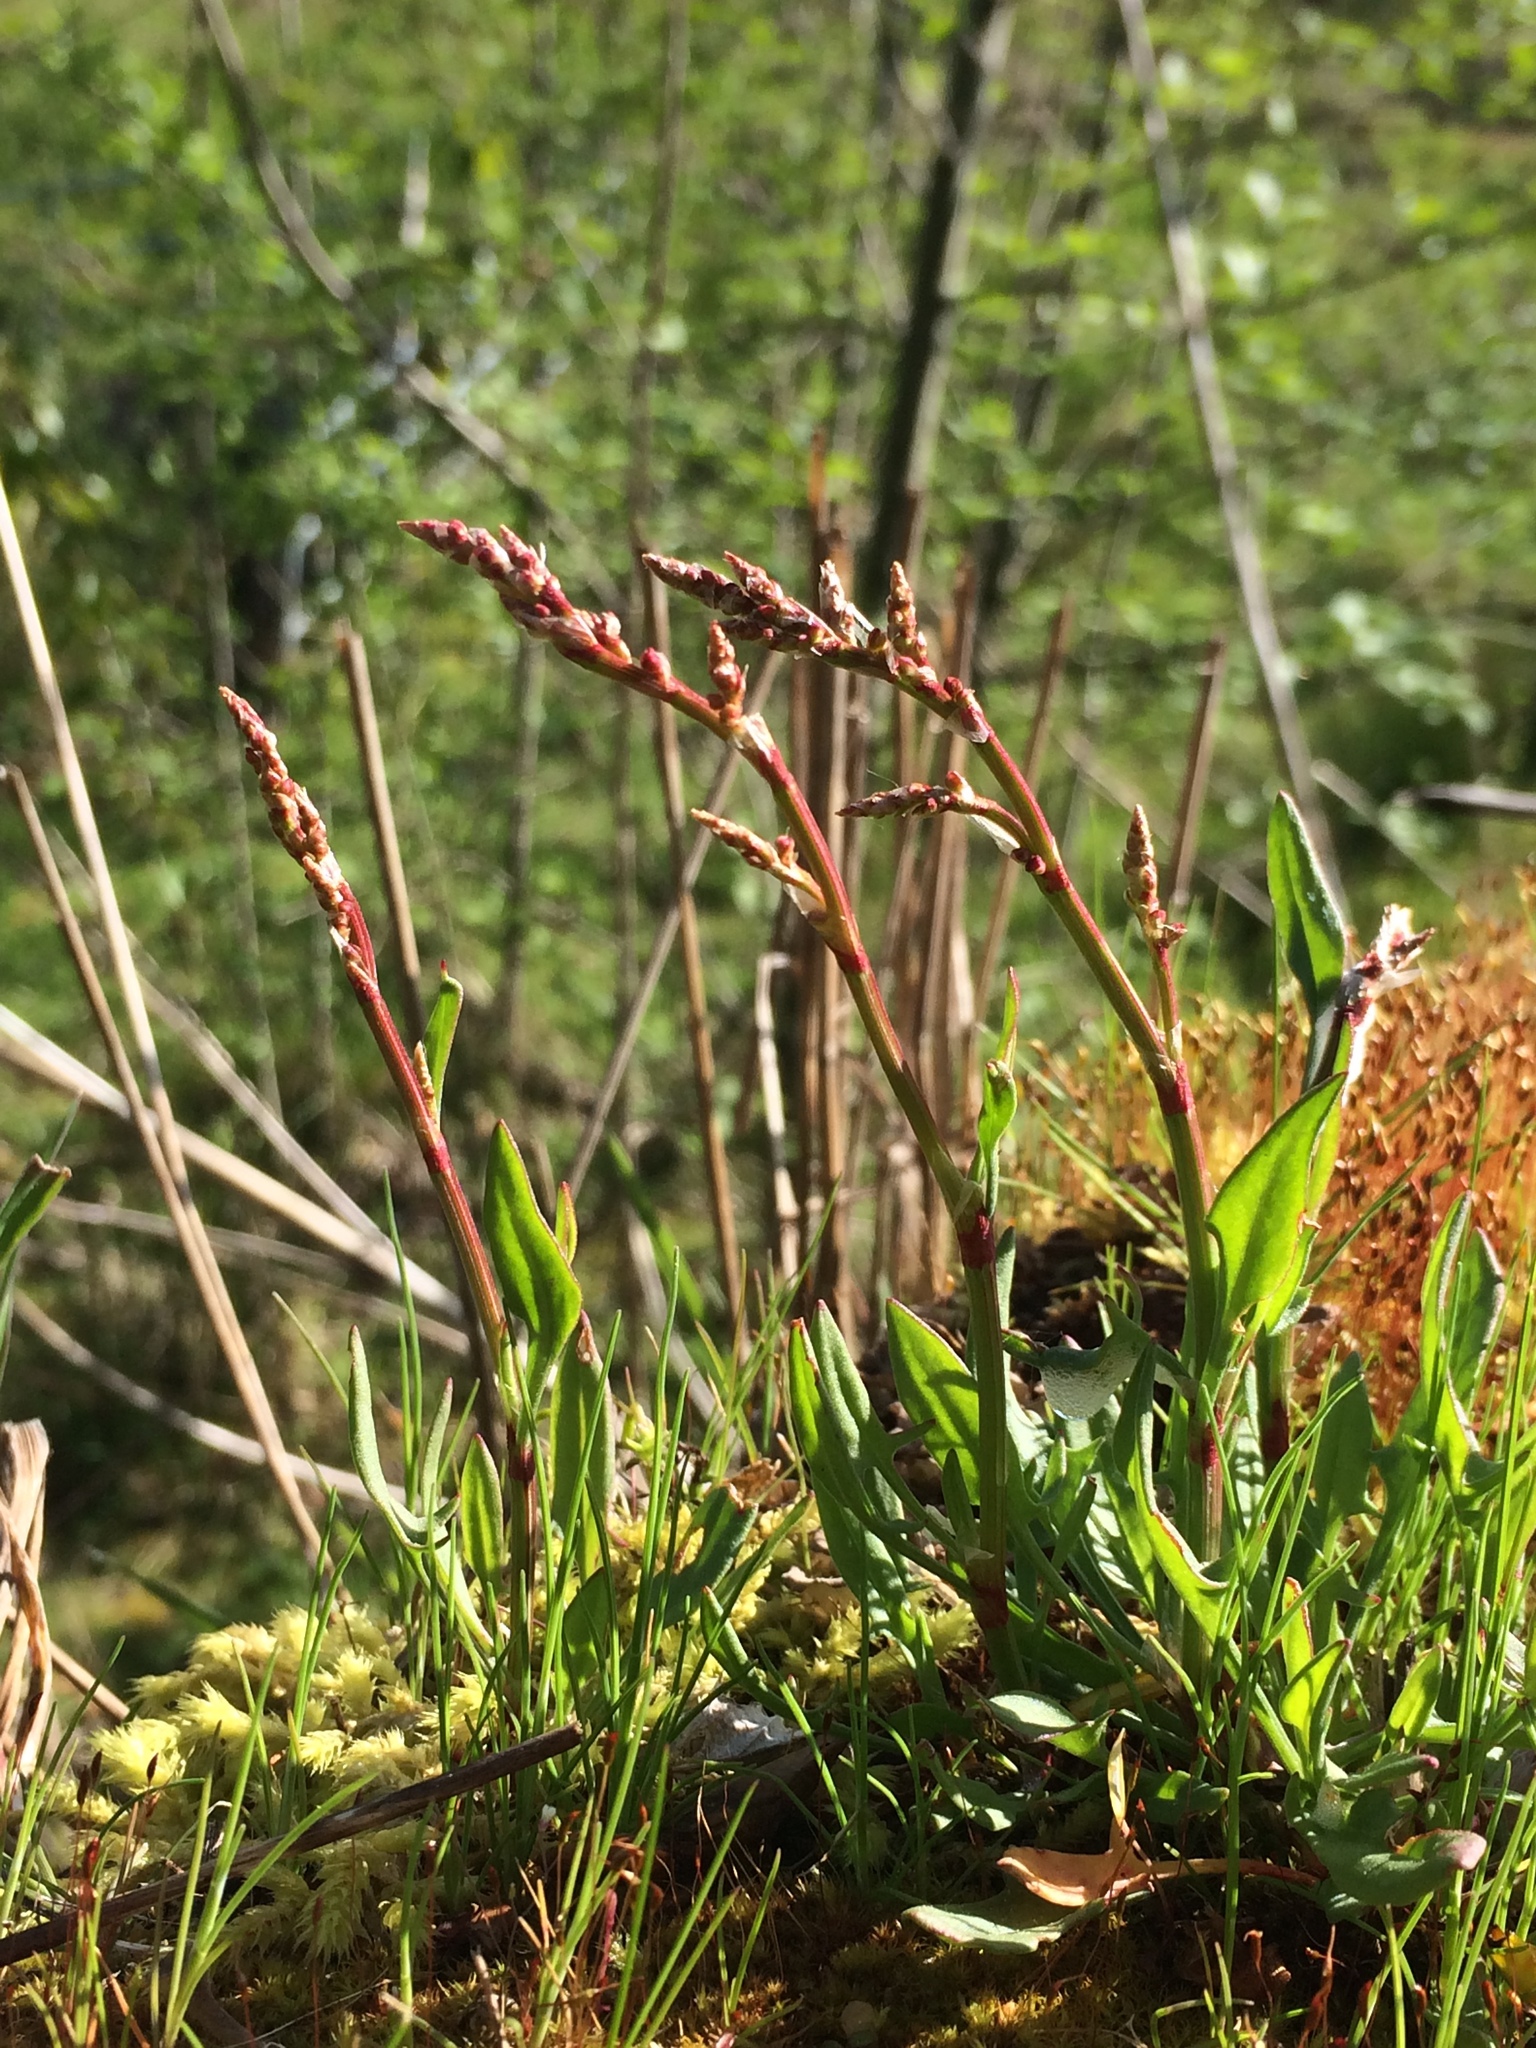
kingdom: Plantae
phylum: Tracheophyta
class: Magnoliopsida
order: Caryophyllales
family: Polygonaceae
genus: Rumex
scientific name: Rumex acetosella
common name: Common sheep sorrel
